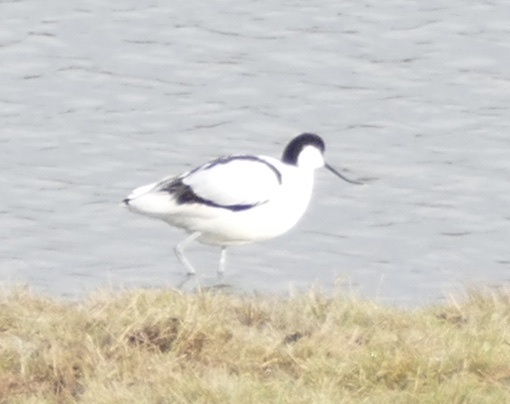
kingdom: Animalia
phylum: Chordata
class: Aves
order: Charadriiformes
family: Recurvirostridae
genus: Recurvirostra
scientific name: Recurvirostra avosetta
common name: Pied avocet
